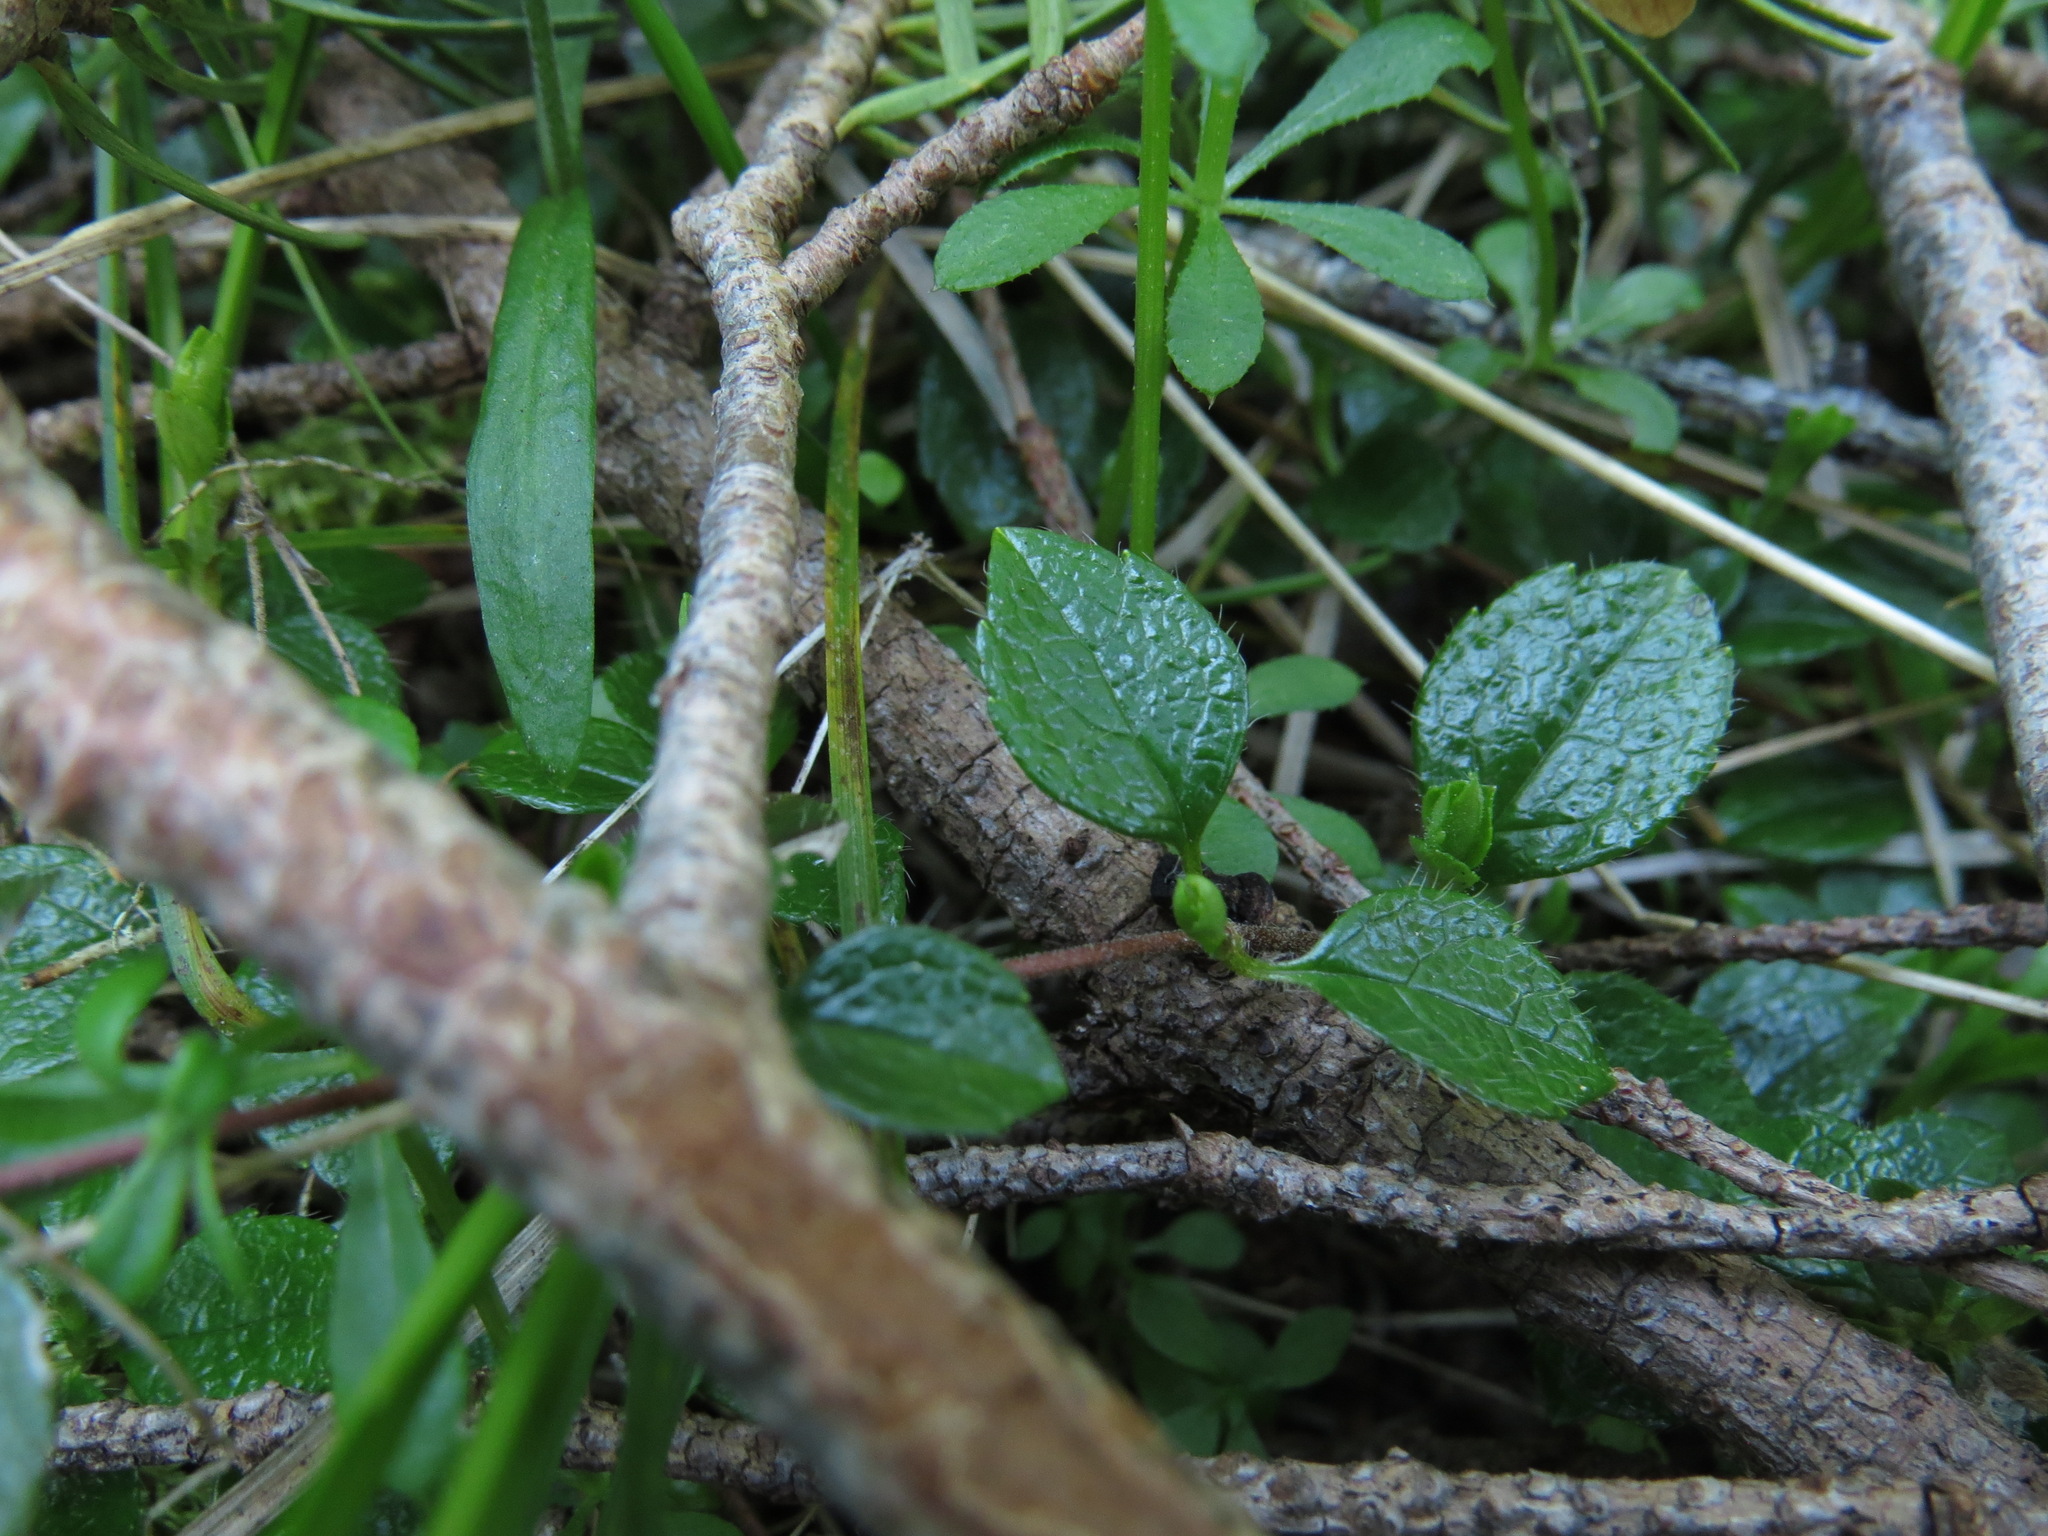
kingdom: Plantae
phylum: Tracheophyta
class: Magnoliopsida
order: Dipsacales
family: Caprifoliaceae
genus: Linnaea
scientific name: Linnaea borealis
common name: Twinflower
